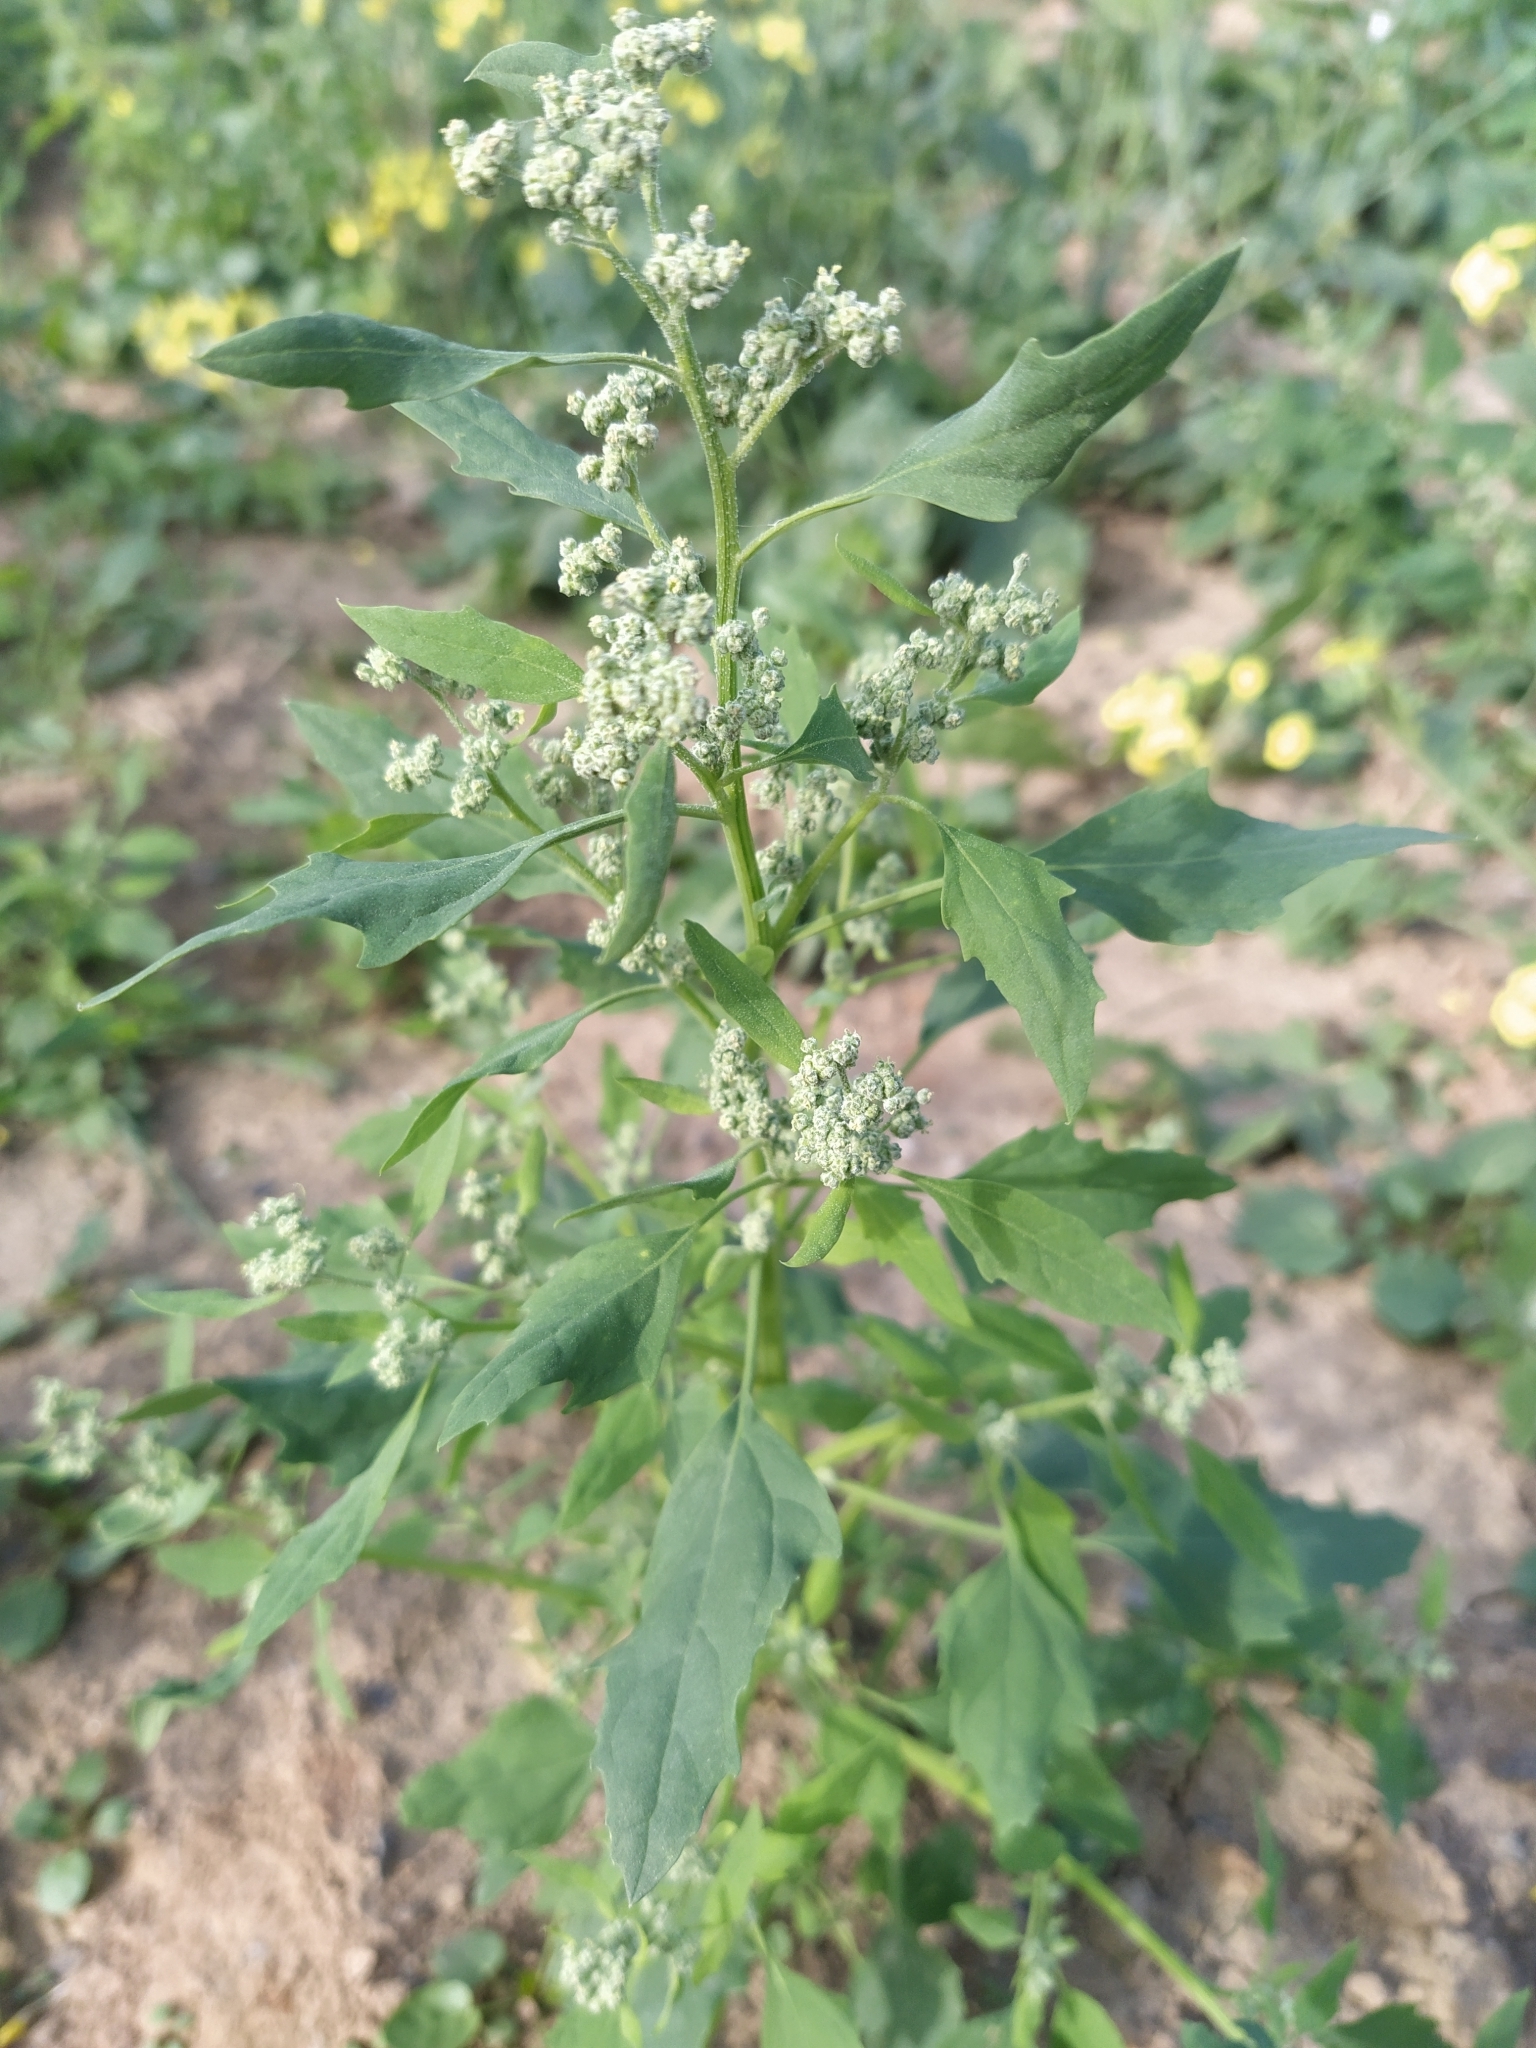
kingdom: Plantae
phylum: Tracheophyta
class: Magnoliopsida
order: Caryophyllales
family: Amaranthaceae
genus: Chenopodium
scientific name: Chenopodium album
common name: Fat-hen
